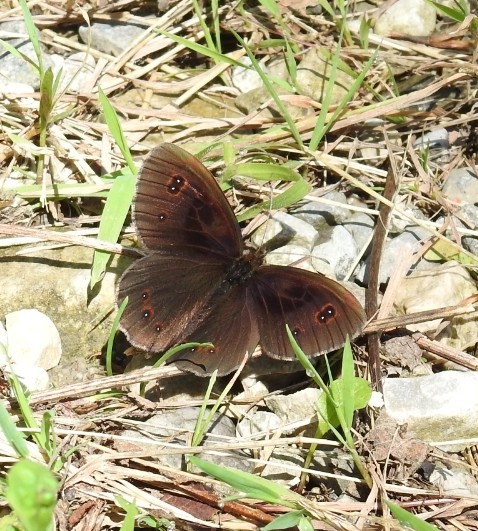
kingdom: Animalia
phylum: Arthropoda
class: Insecta
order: Lepidoptera
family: Nymphalidae
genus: Erebia
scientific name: Erebia aethiops
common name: Scotch argus
